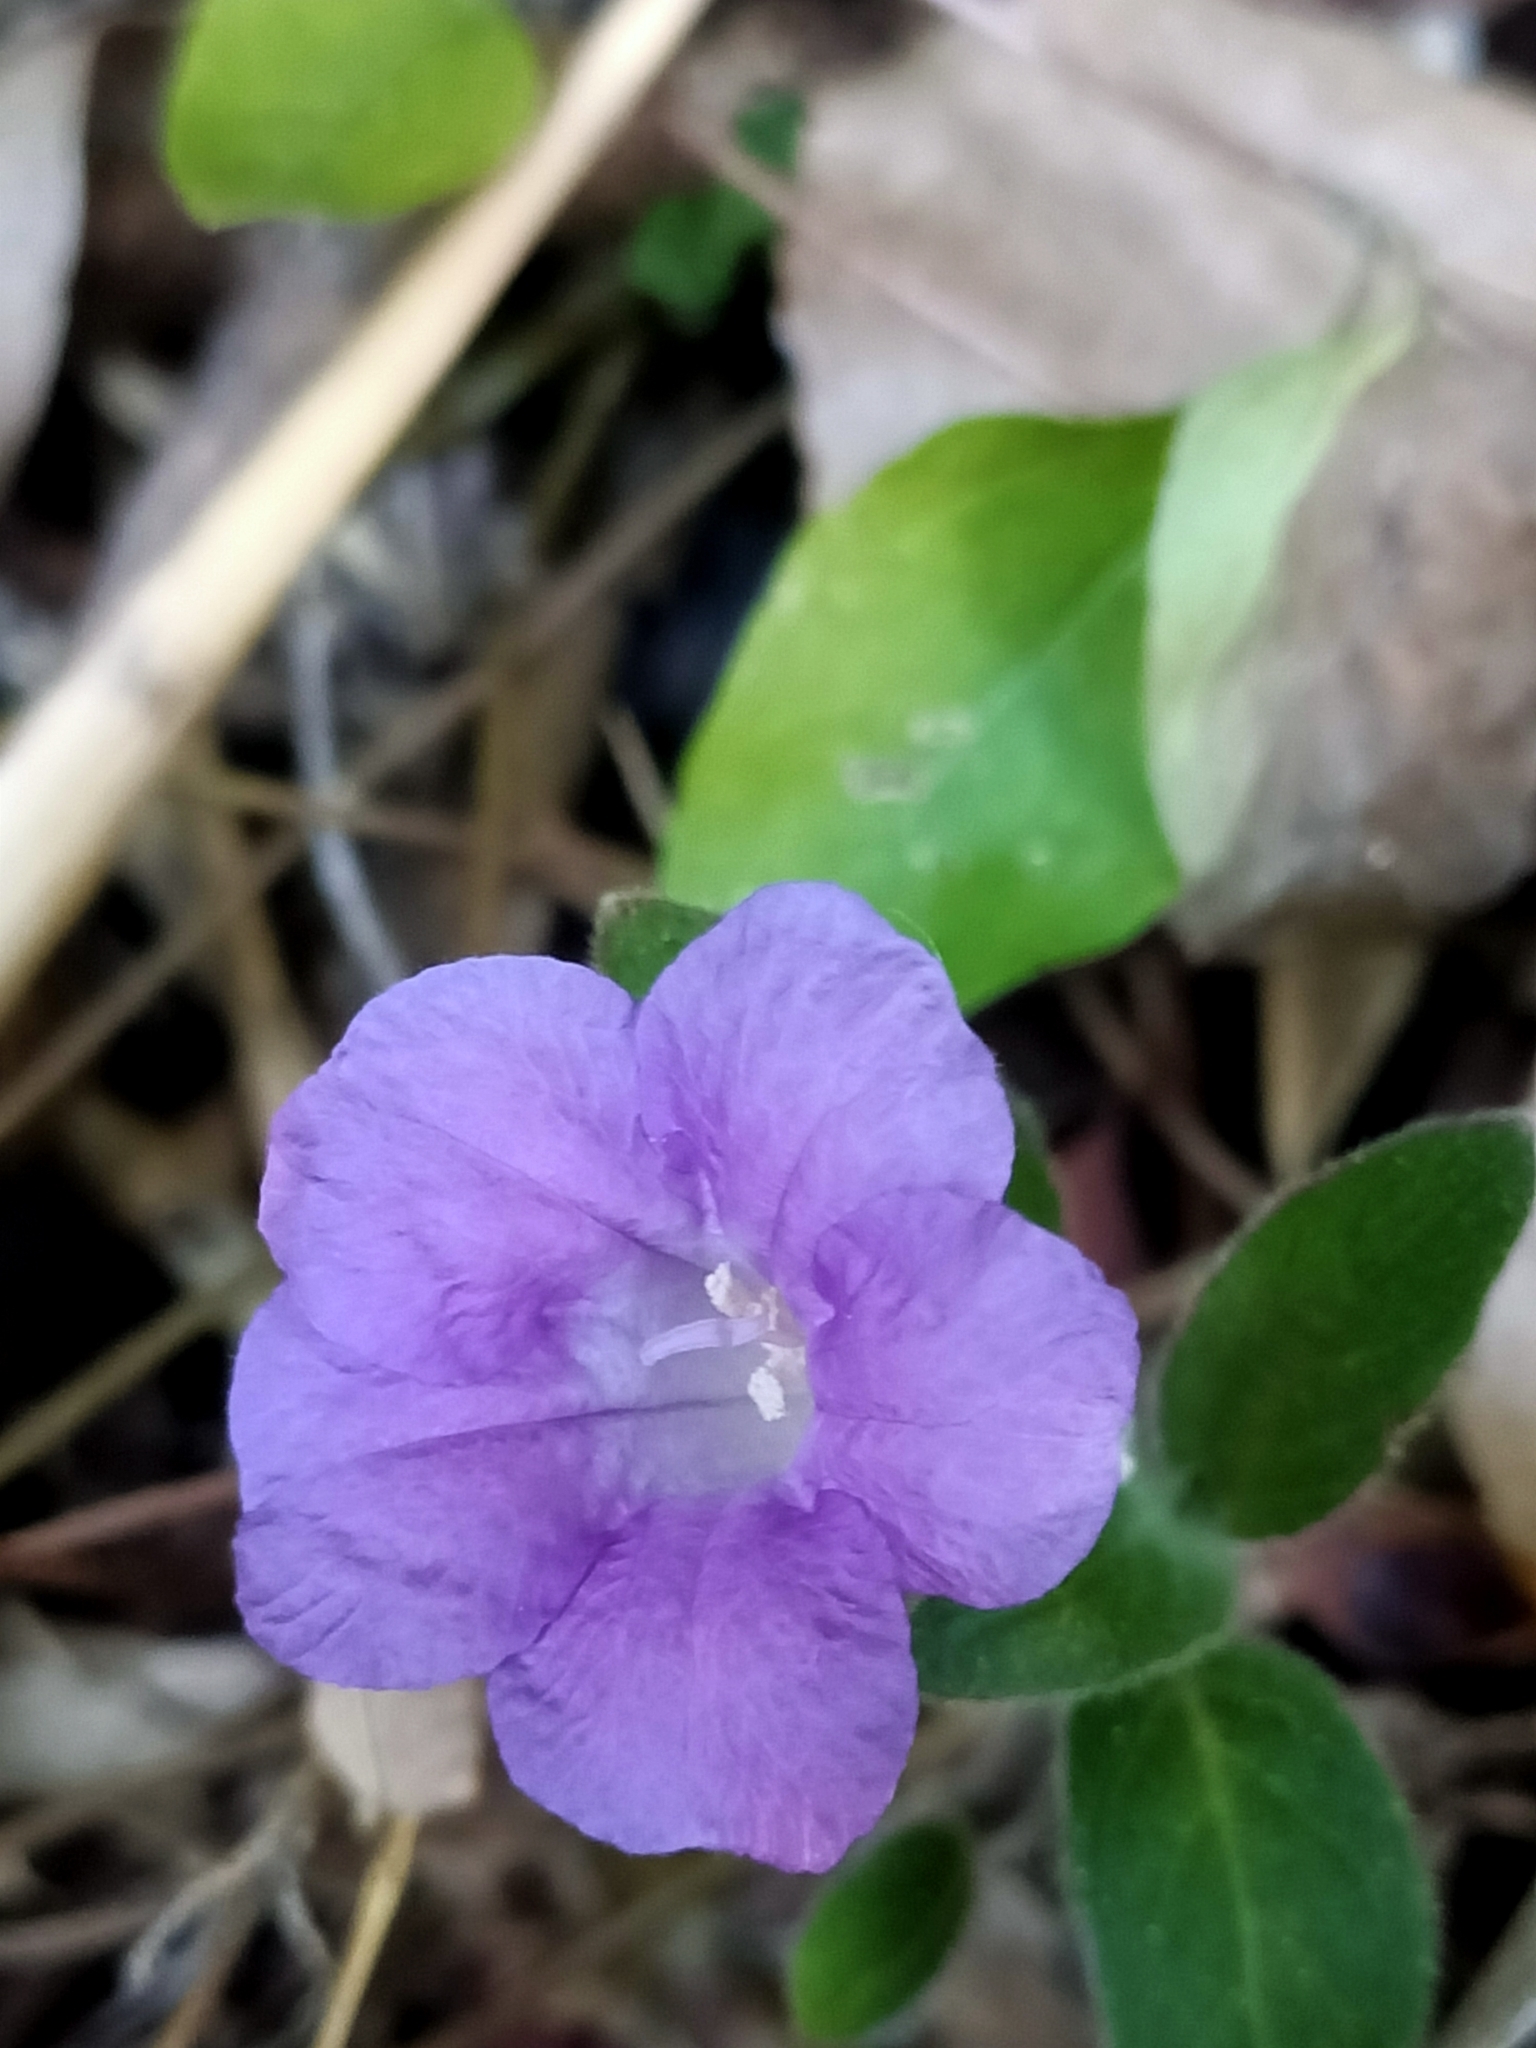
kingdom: Plantae
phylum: Tracheophyta
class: Magnoliopsida
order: Lamiales
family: Acanthaceae
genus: Ruellia
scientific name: Ruellia squarrosa
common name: Water bluebell
